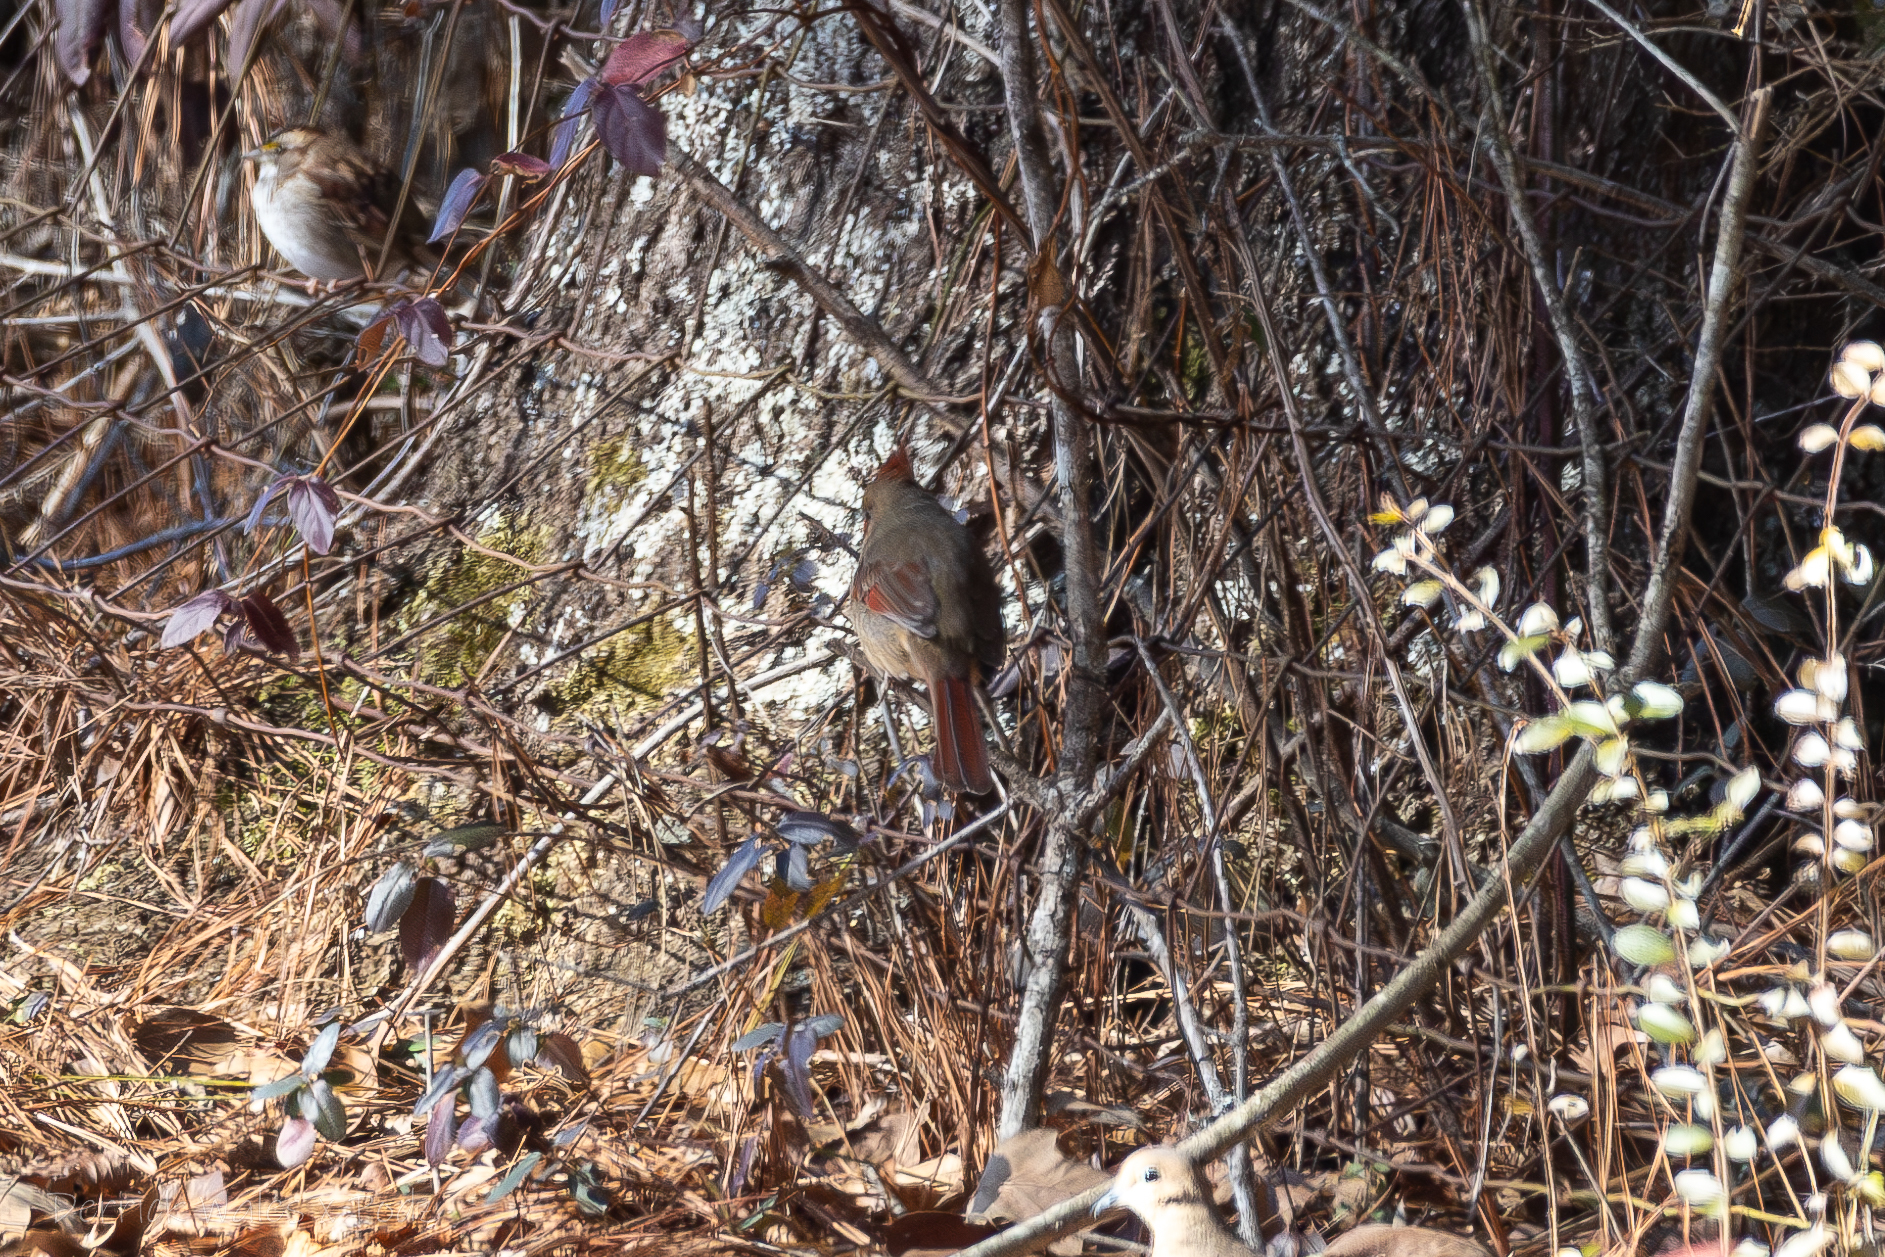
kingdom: Animalia
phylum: Chordata
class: Aves
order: Passeriformes
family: Cardinalidae
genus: Cardinalis
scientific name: Cardinalis cardinalis
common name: Northern cardinal
